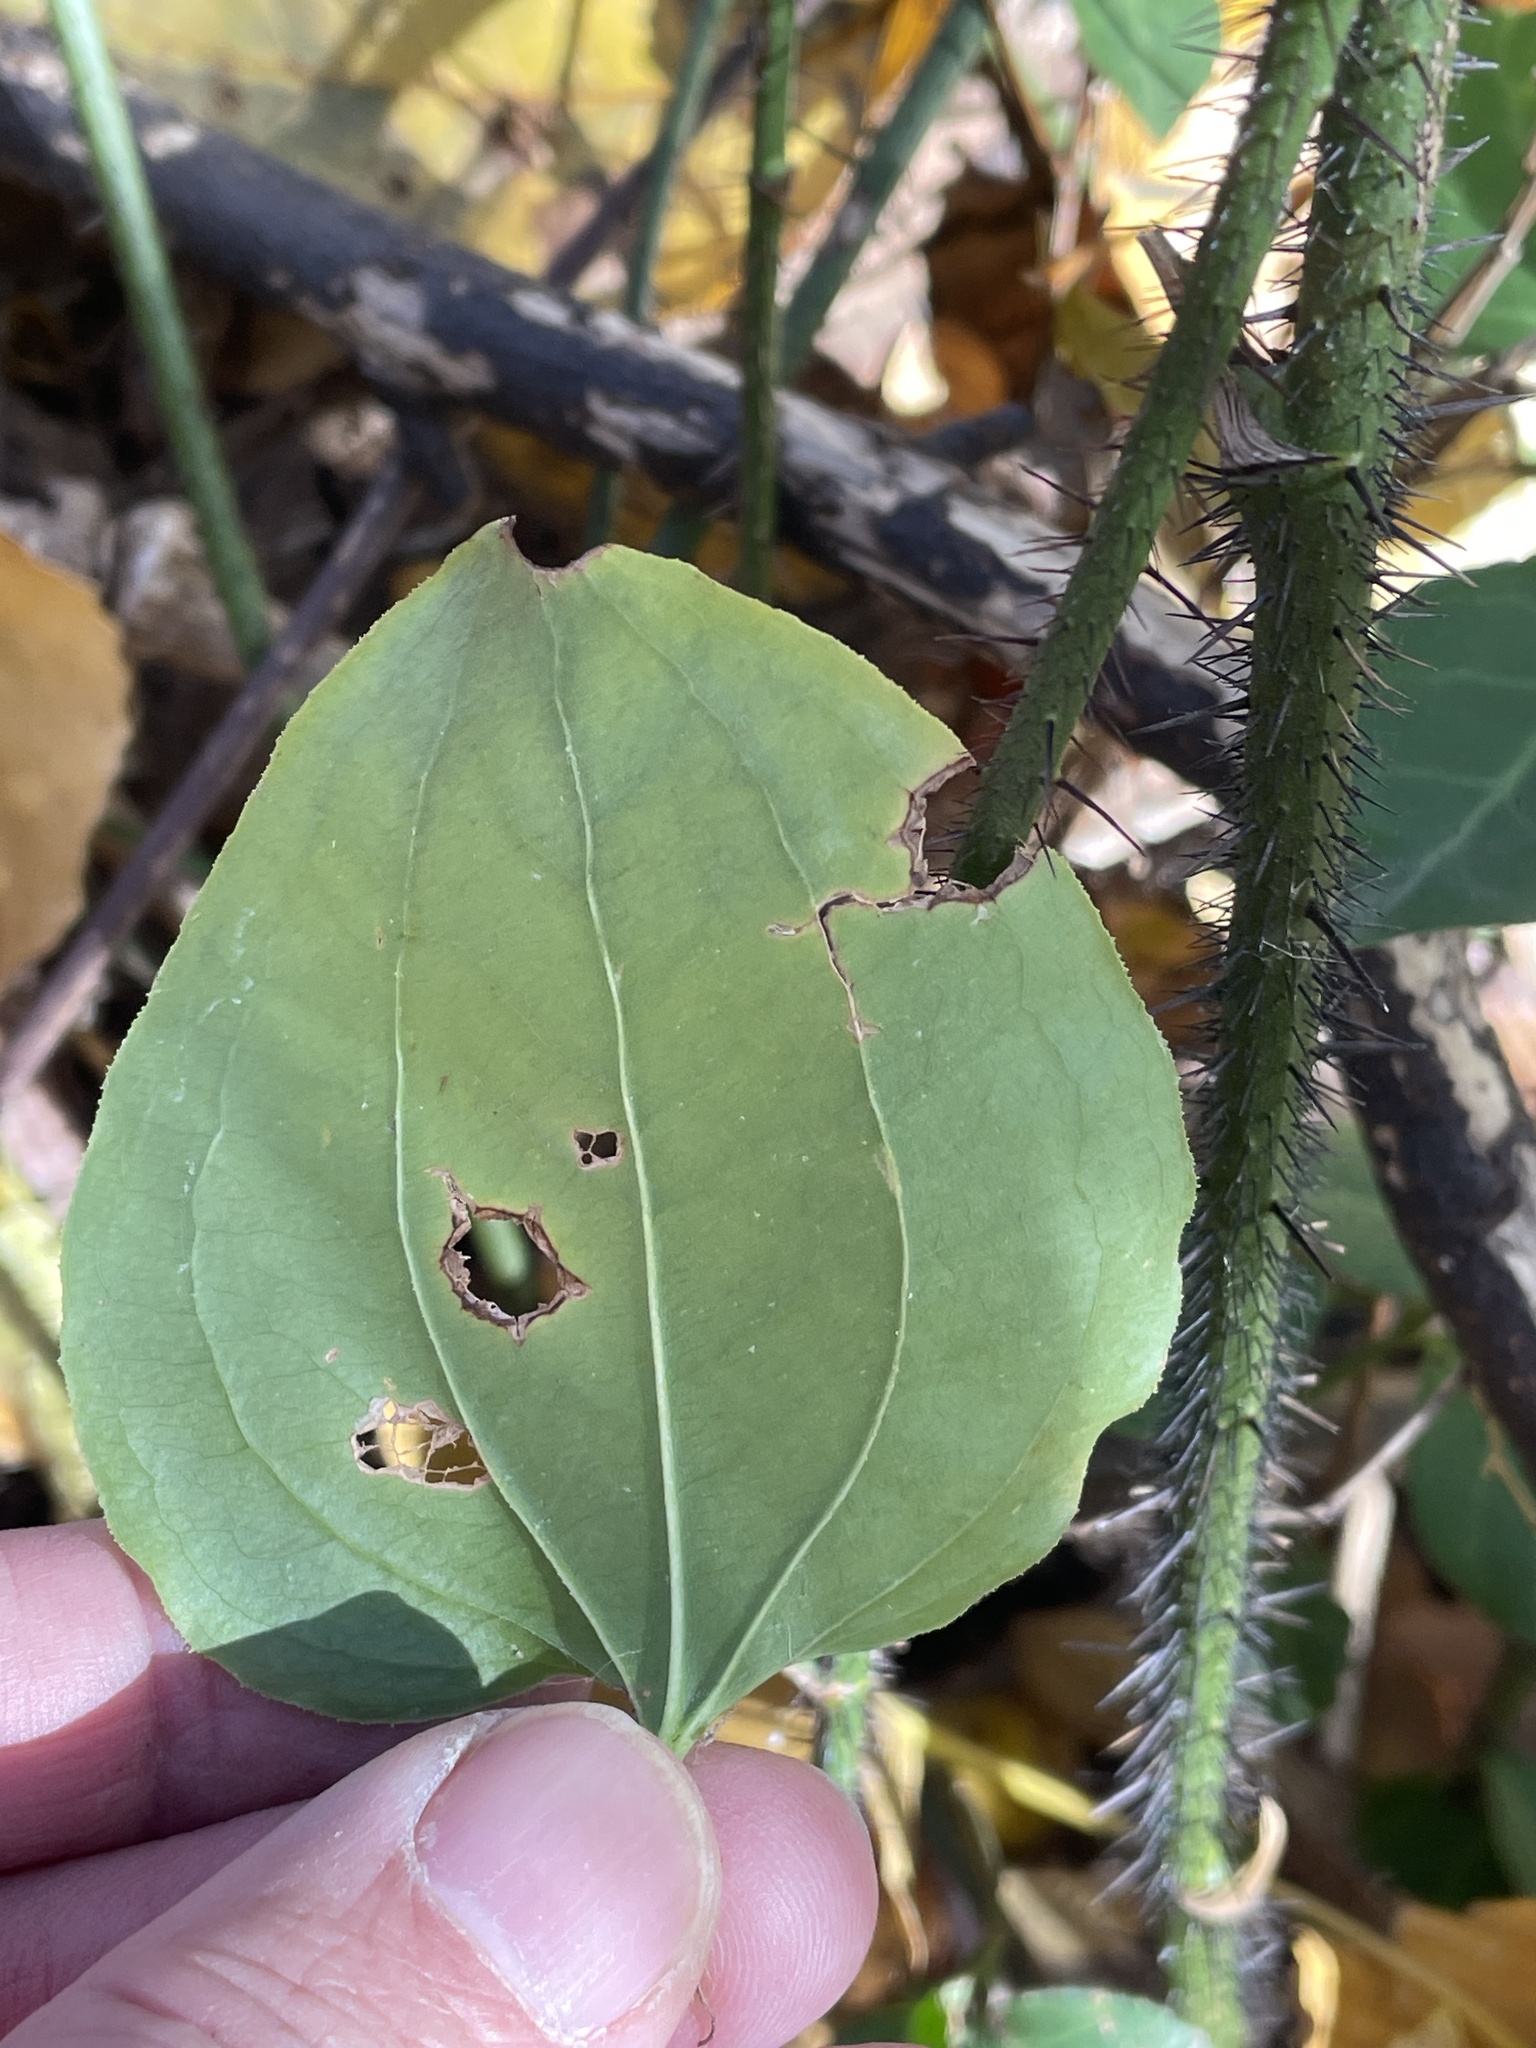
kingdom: Plantae
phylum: Tracheophyta
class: Liliopsida
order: Liliales
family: Smilacaceae
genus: Smilax
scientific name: Smilax tamnoides
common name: Hellfetter
